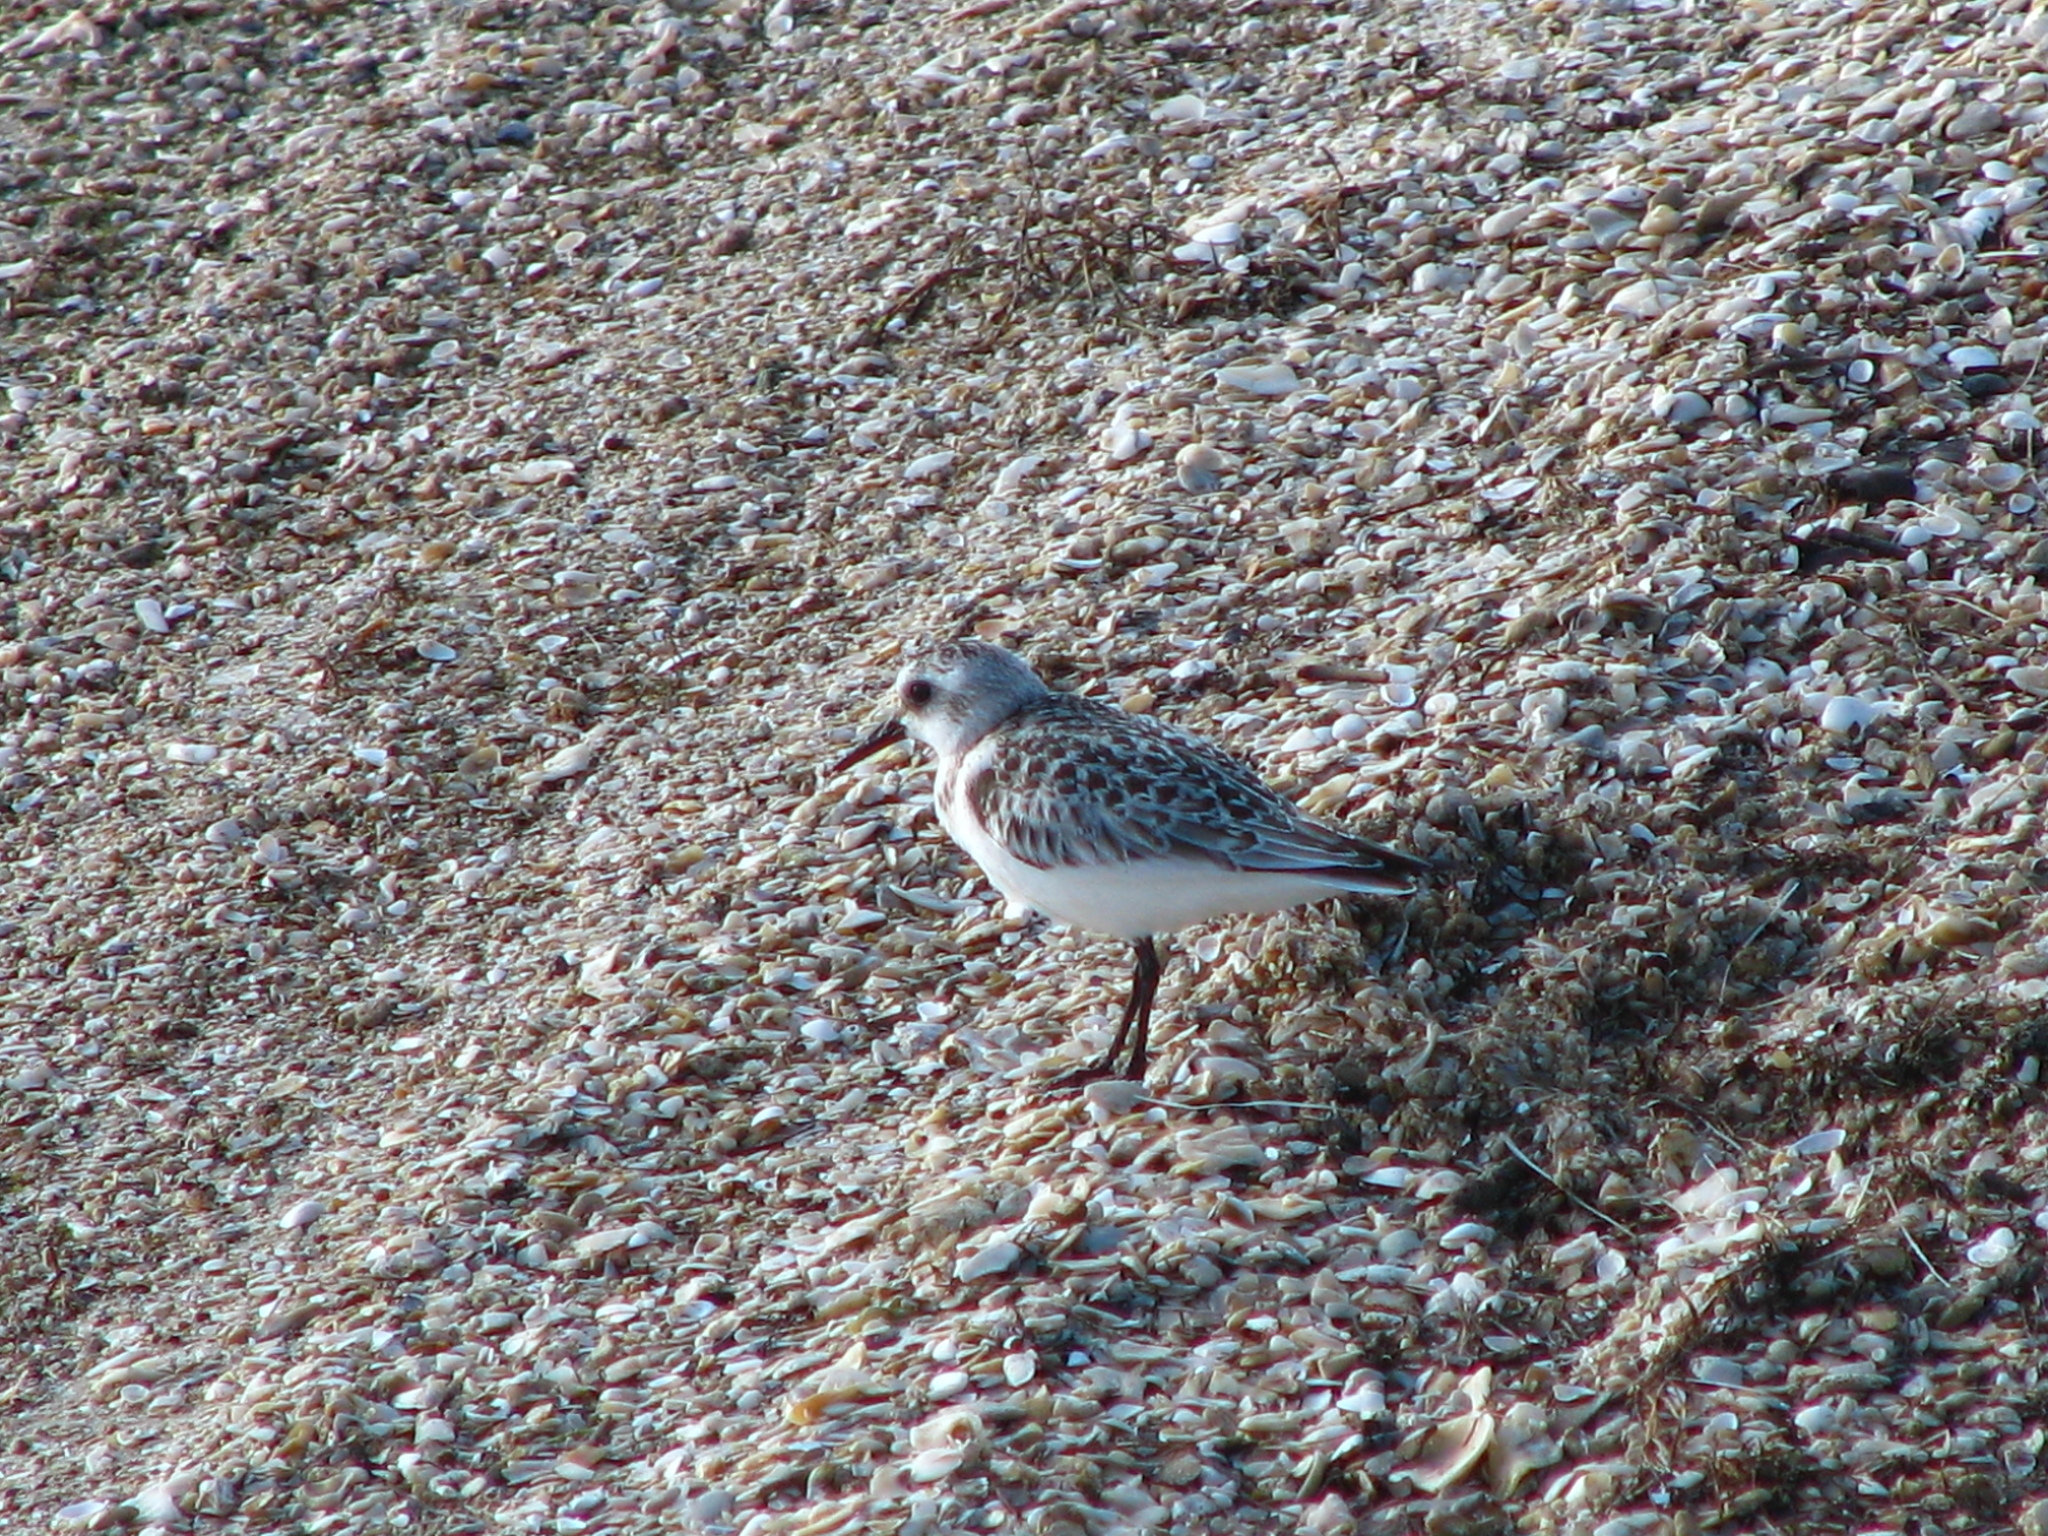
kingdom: Animalia
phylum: Chordata
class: Aves
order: Charadriiformes
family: Scolopacidae
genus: Calidris
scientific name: Calidris alba
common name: Sanderling
